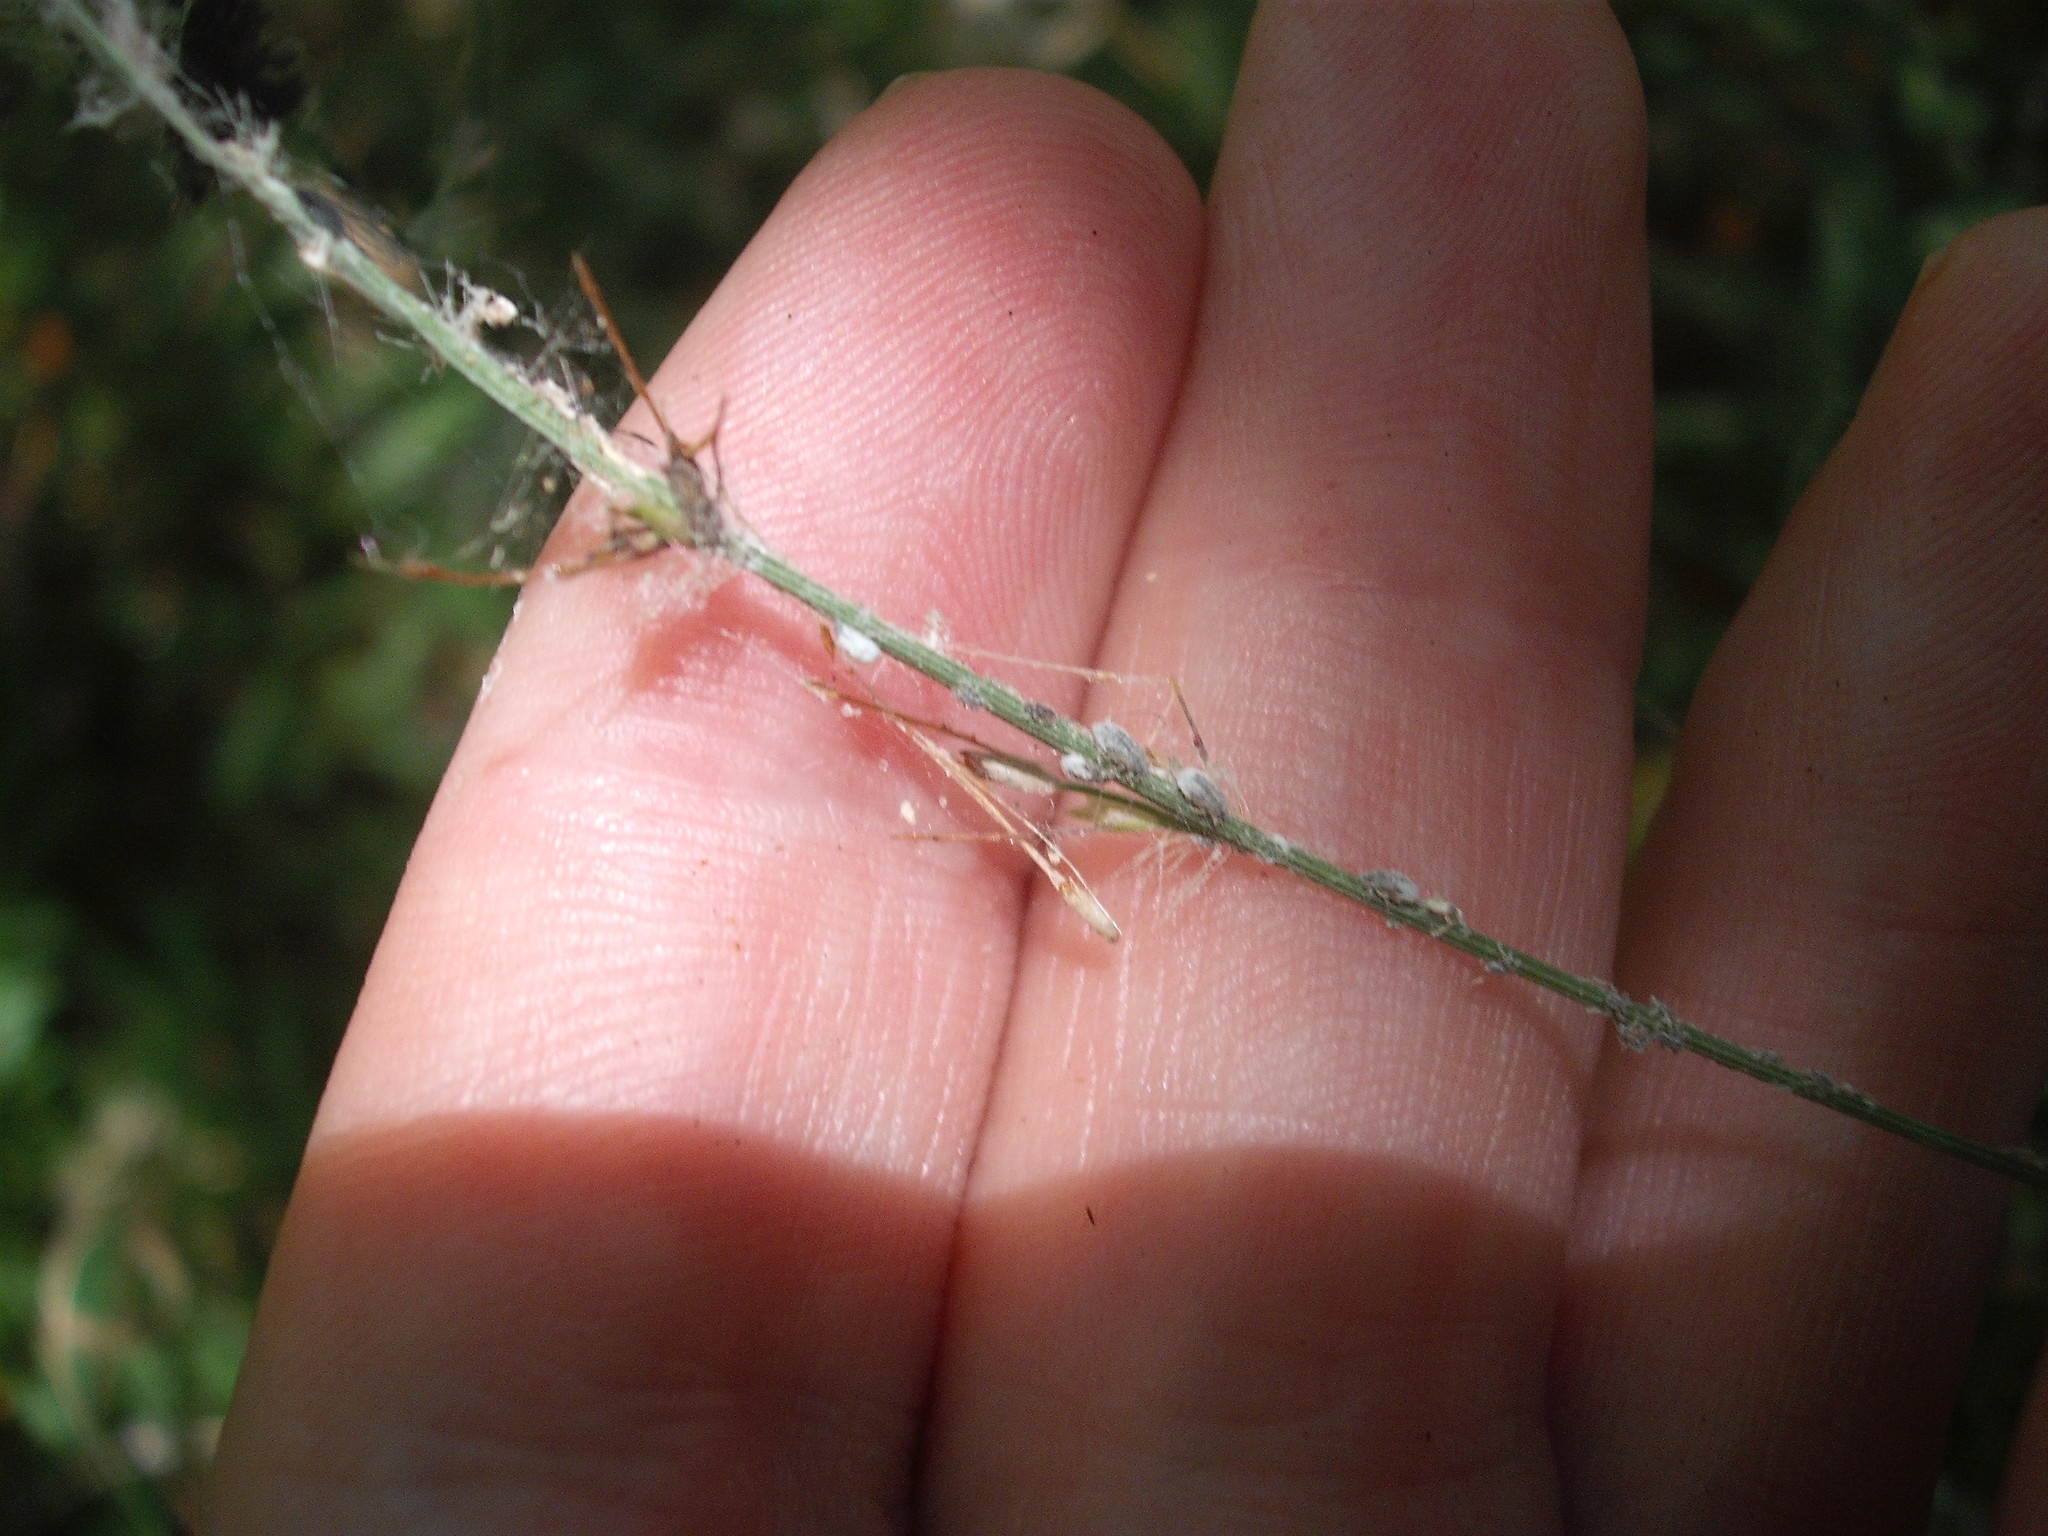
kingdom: Animalia
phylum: Arthropoda
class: Insecta
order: Hemiptera
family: Aphididae
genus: Pseudoregma
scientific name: Pseudoregma panicola
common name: Aphid
